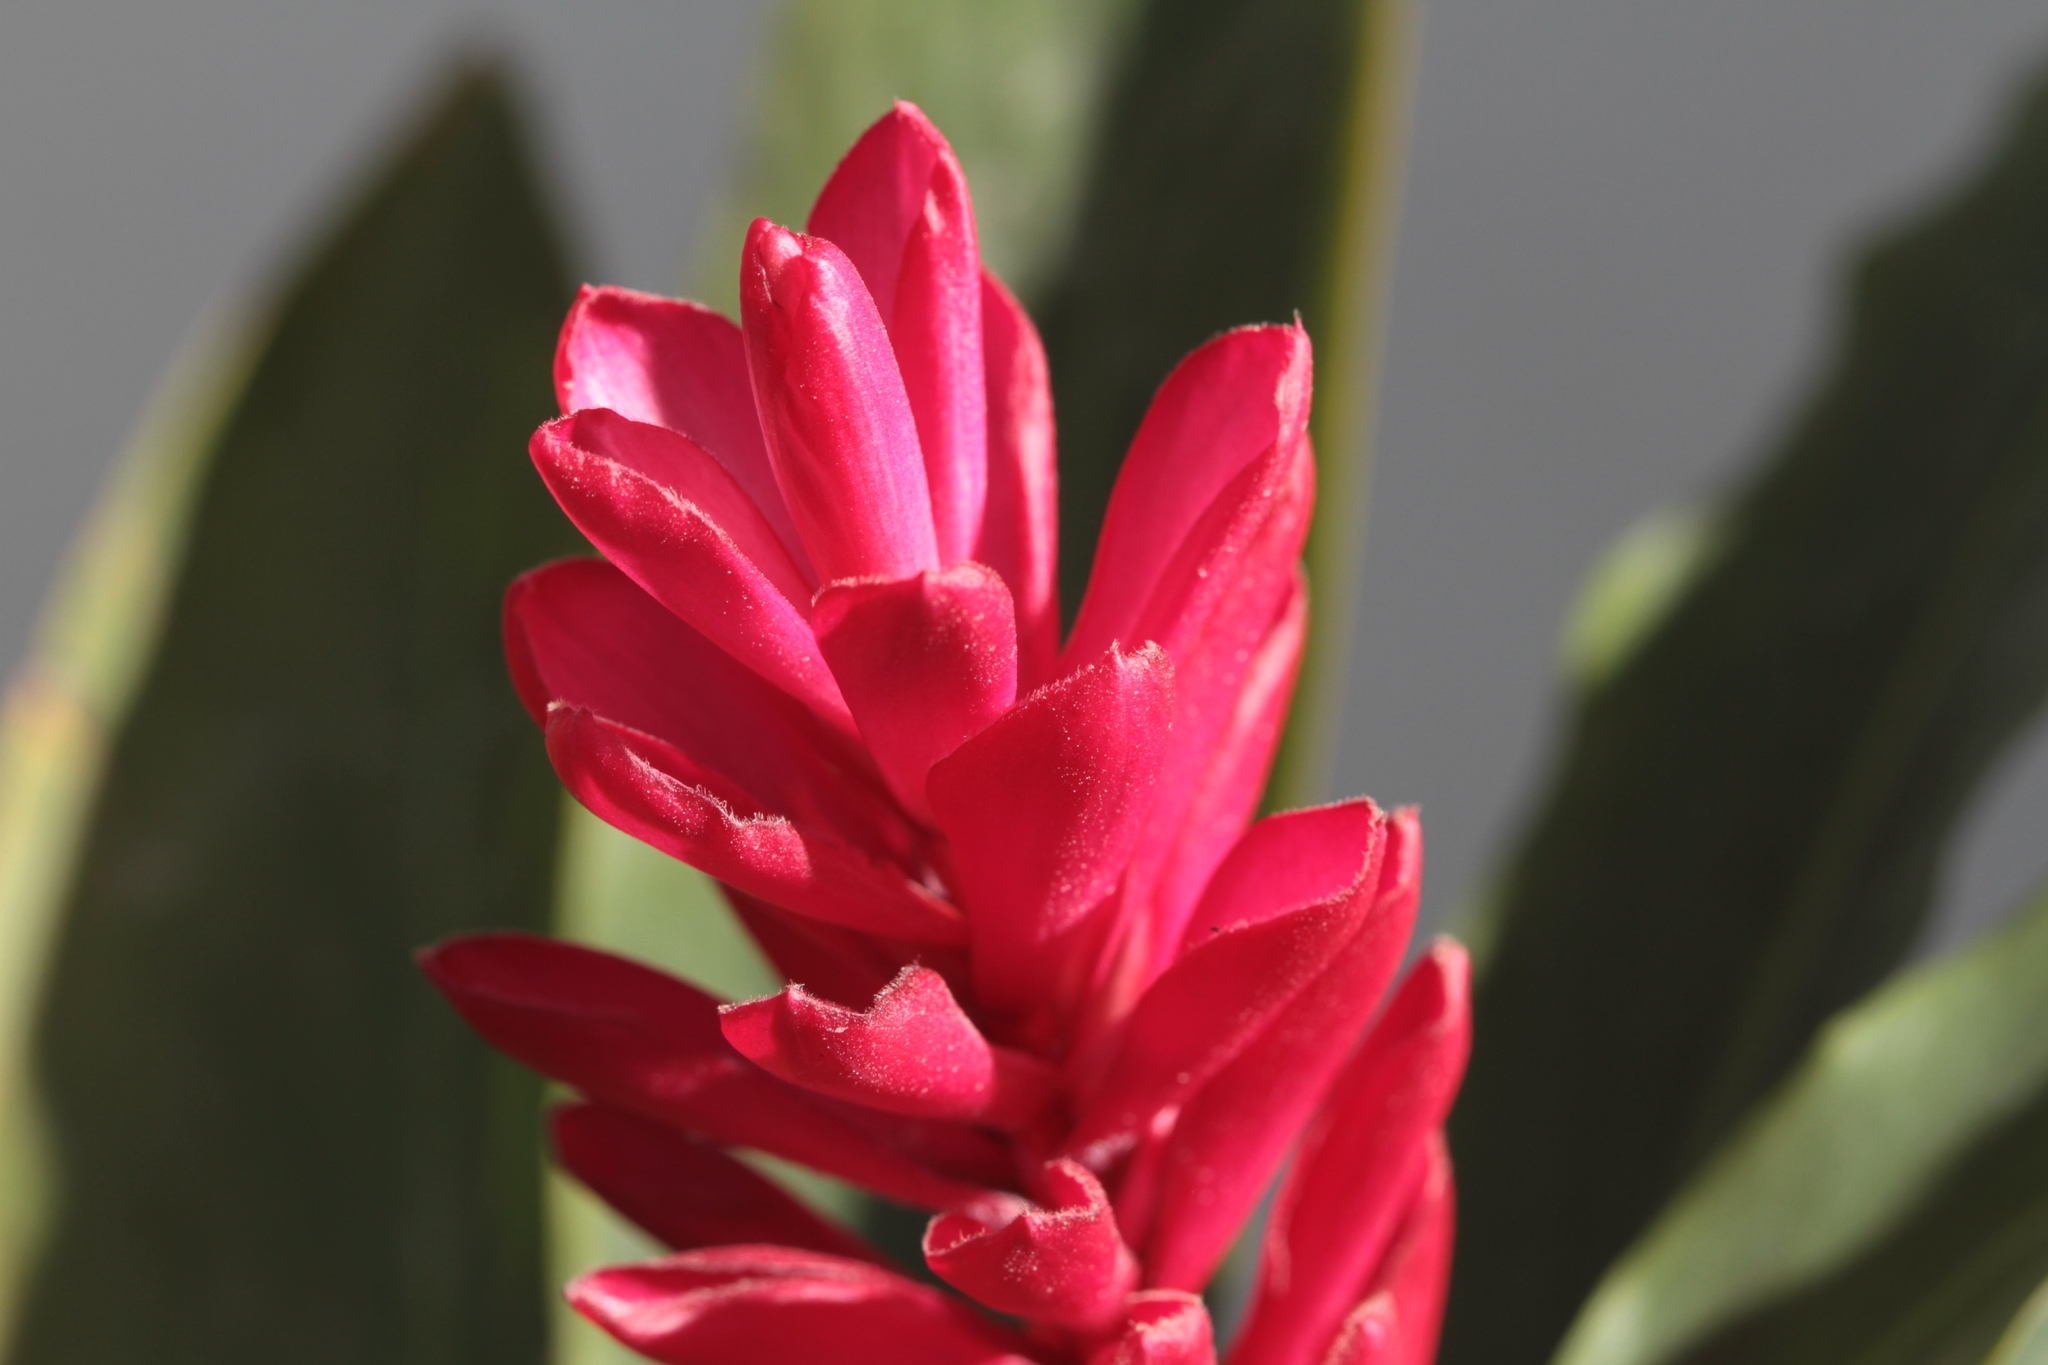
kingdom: Plantae
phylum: Tracheophyta
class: Liliopsida
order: Zingiberales
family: Zingiberaceae
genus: Alpinia
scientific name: Alpinia purpurata
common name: Red ginger
